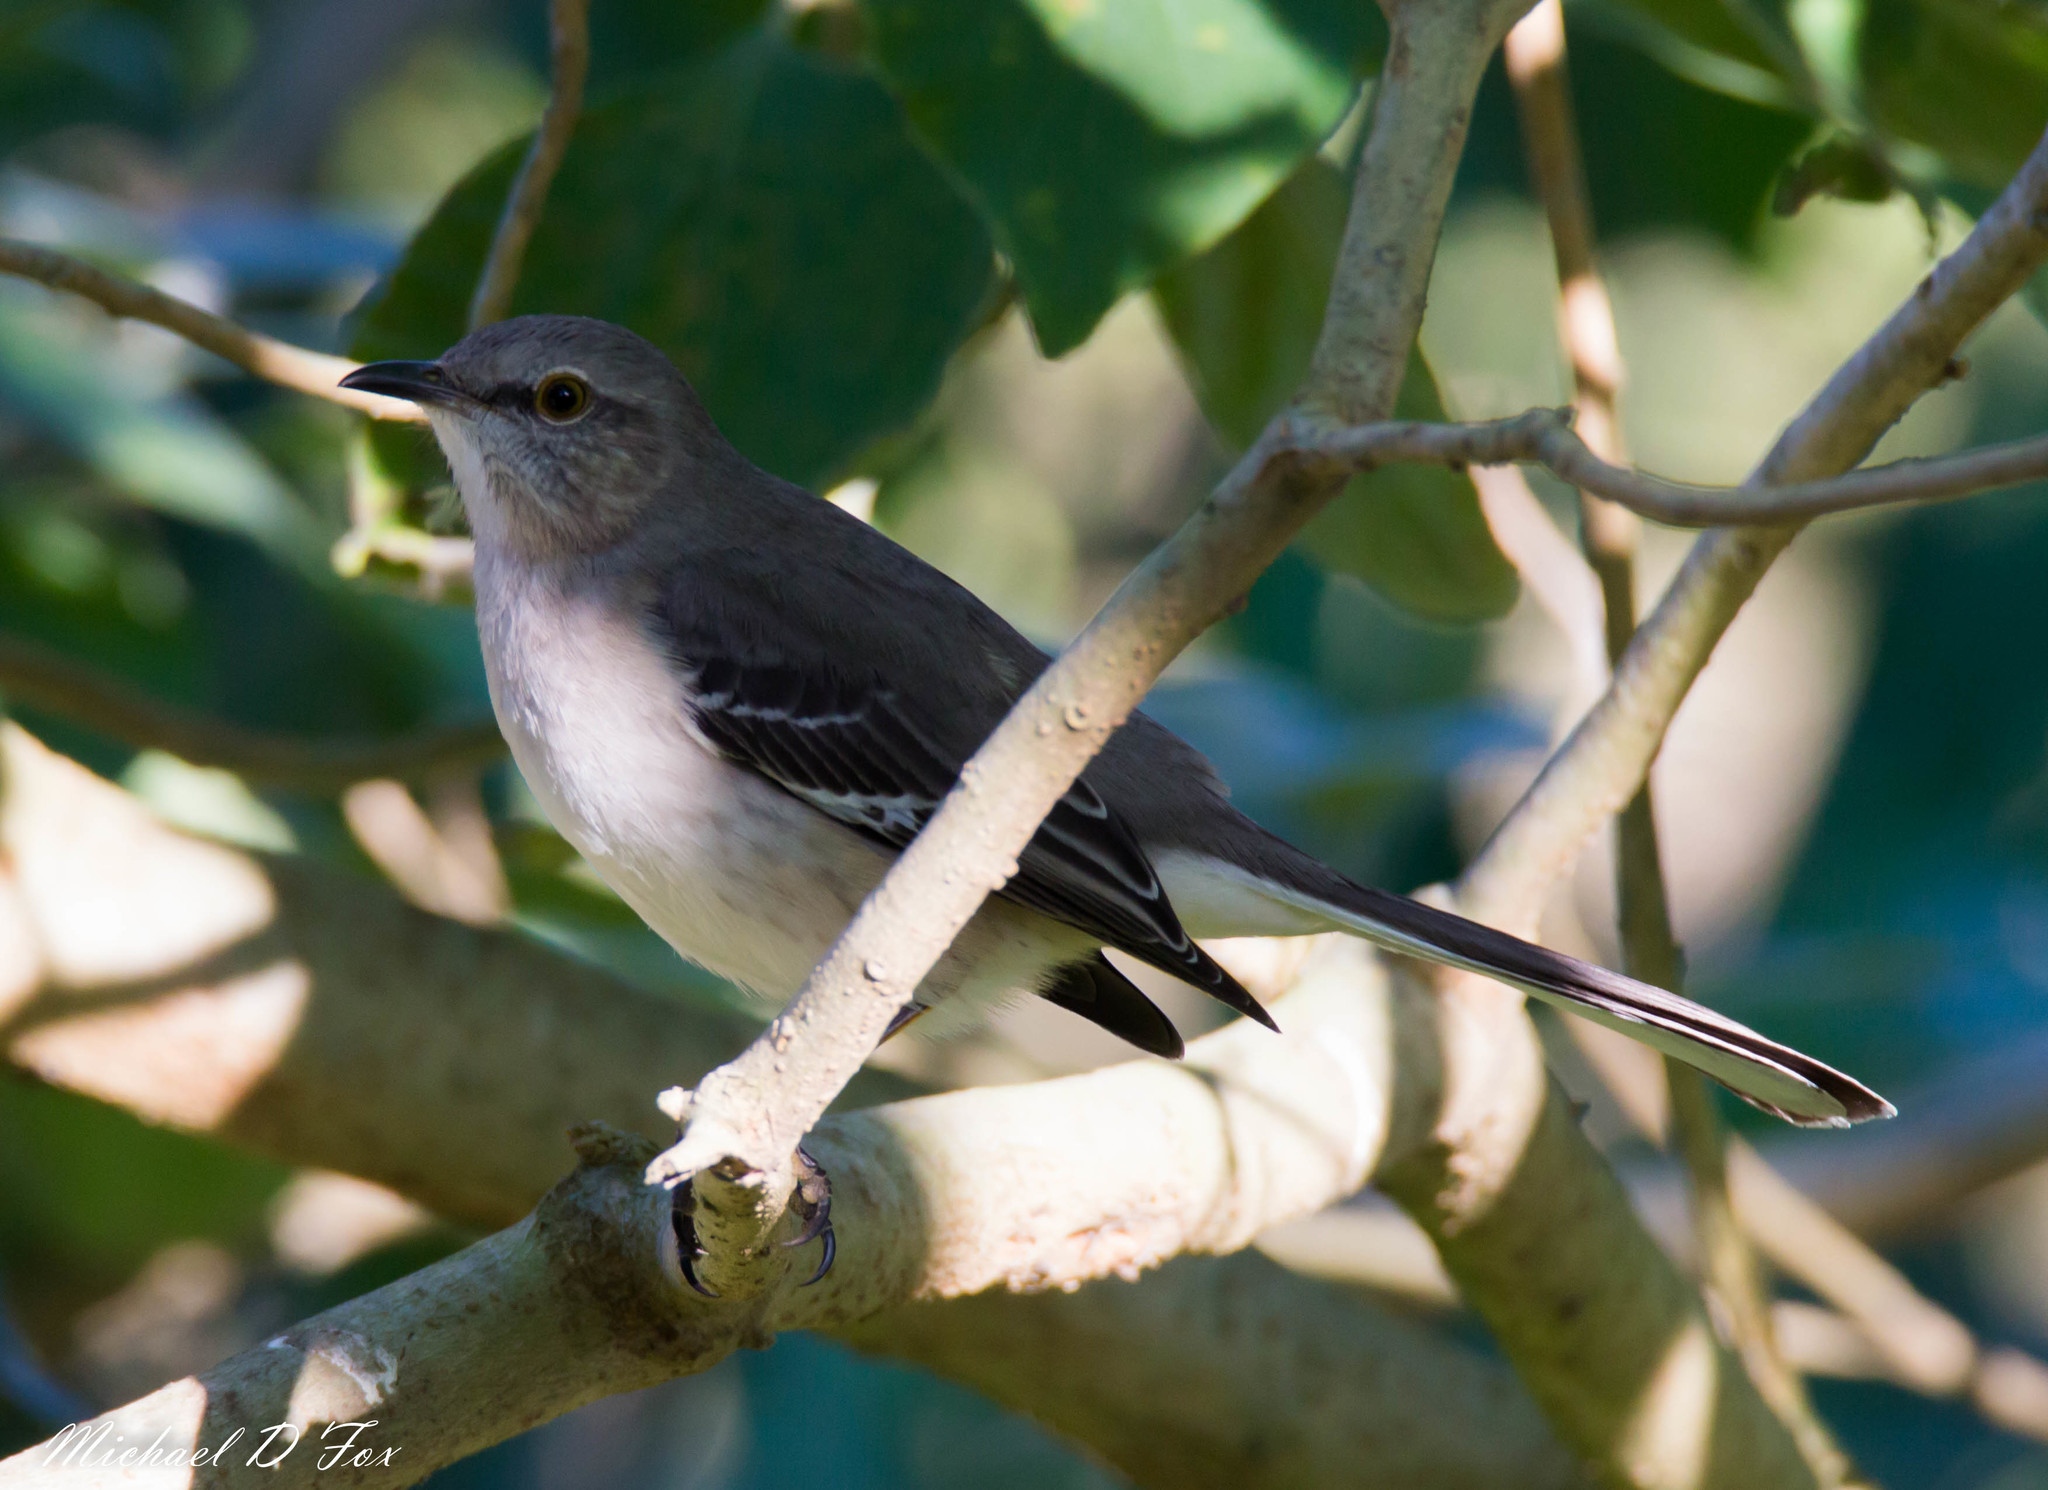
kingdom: Animalia
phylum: Chordata
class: Aves
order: Passeriformes
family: Mimidae
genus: Mimus
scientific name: Mimus polyglottos
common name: Northern mockingbird
